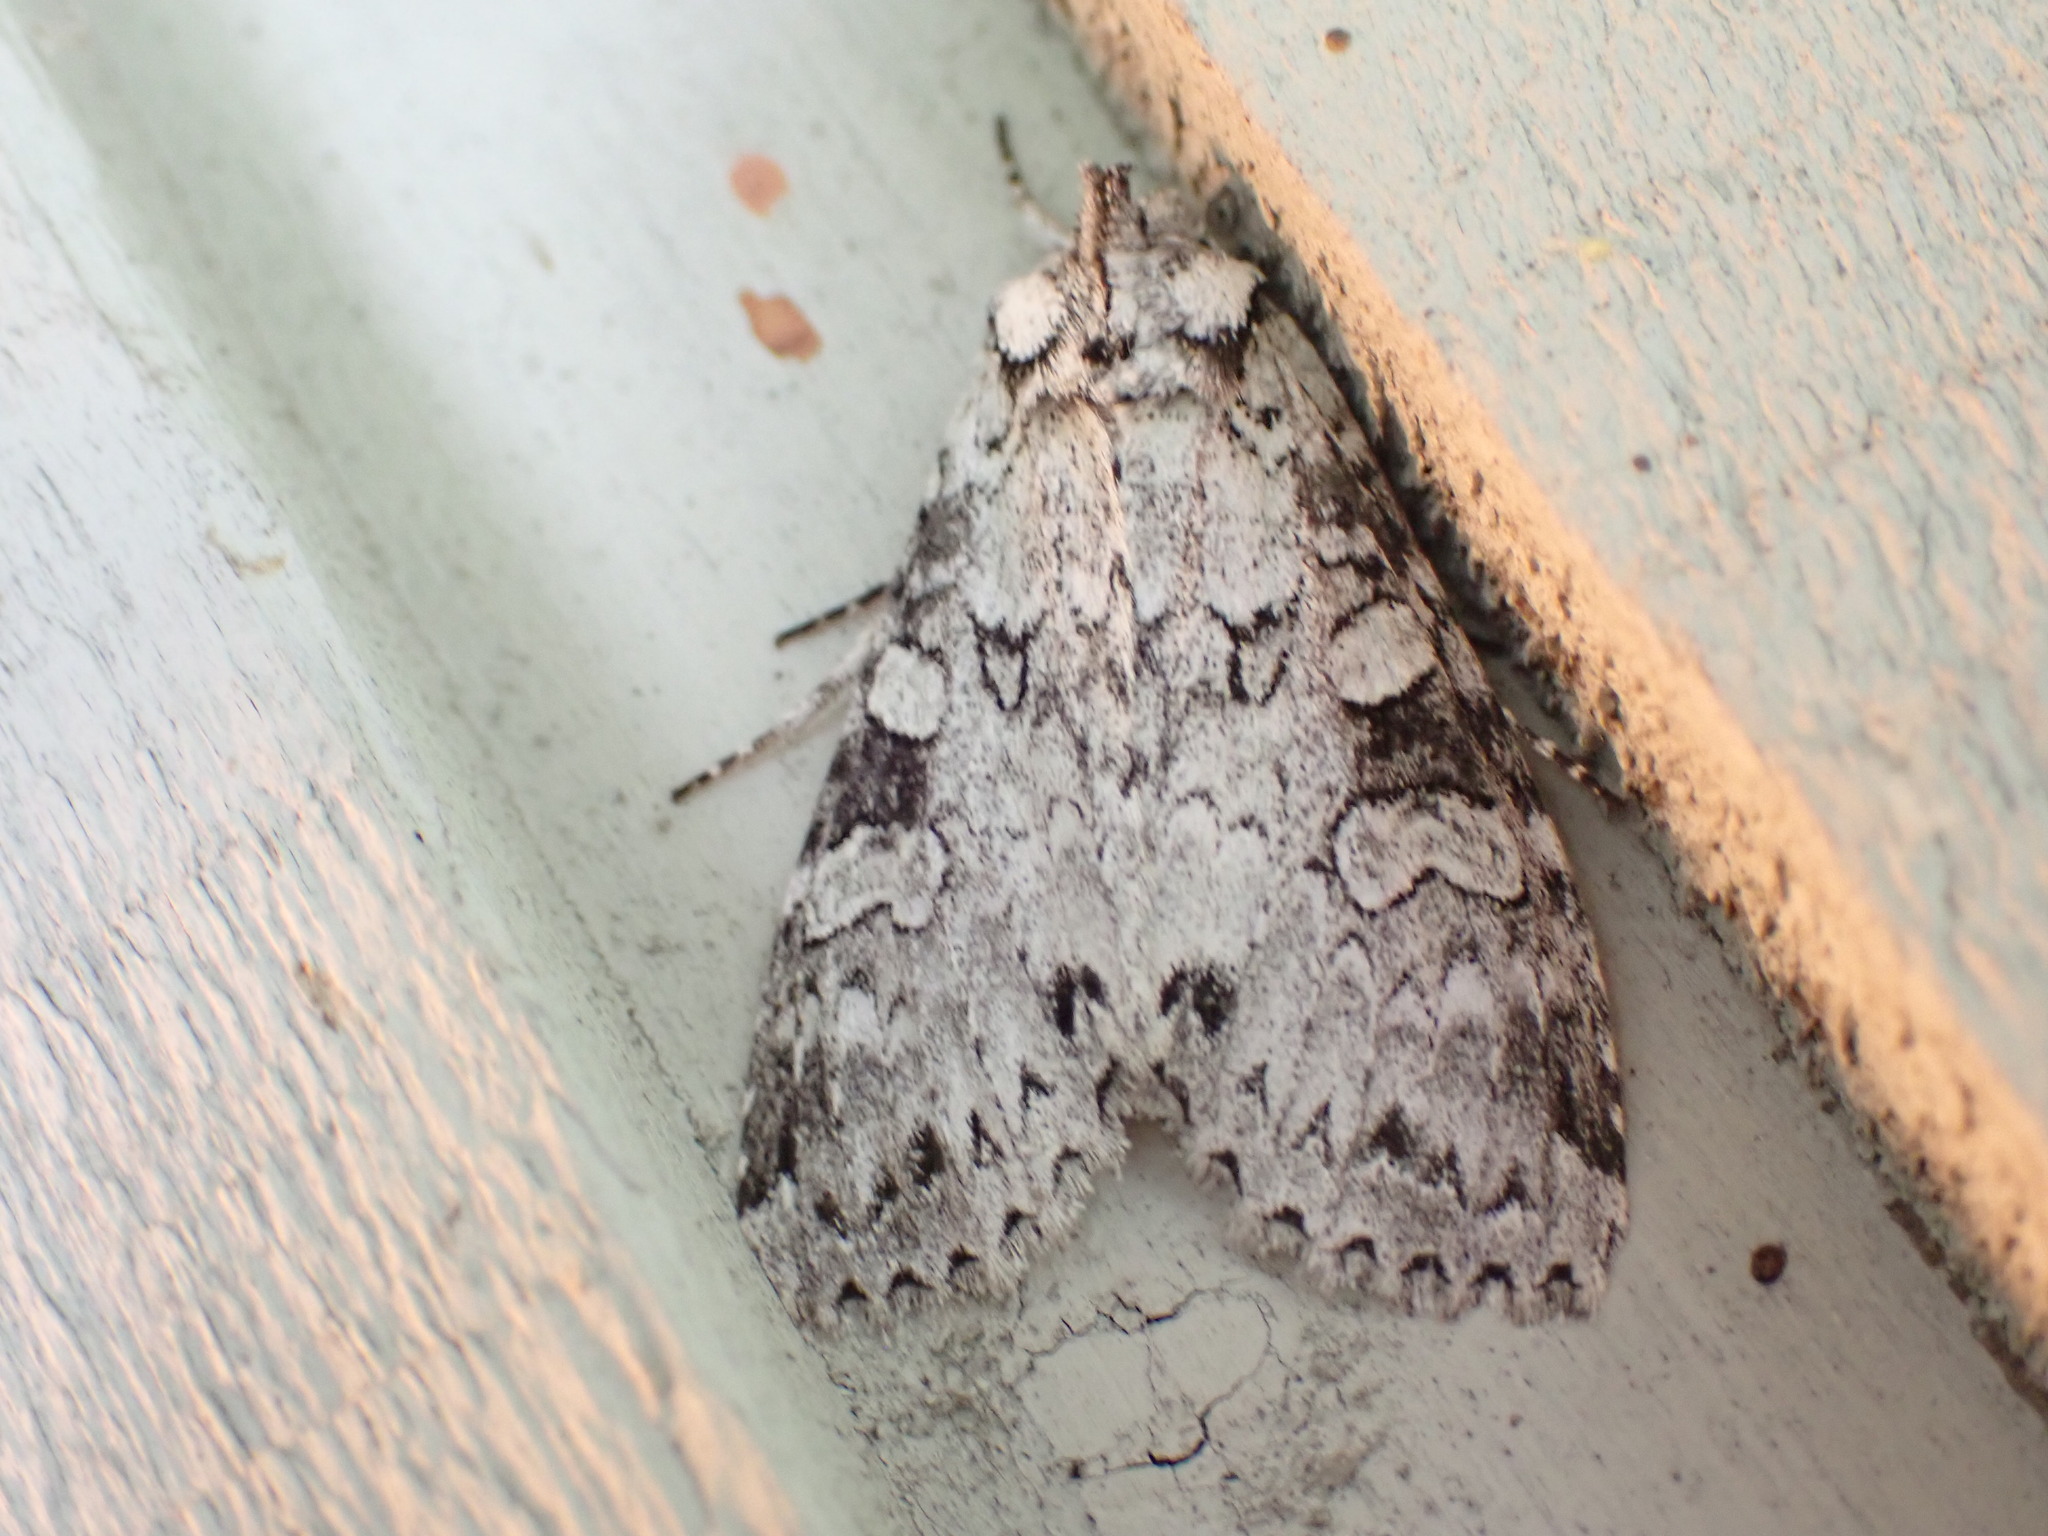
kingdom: Animalia
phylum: Arthropoda
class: Insecta
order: Lepidoptera
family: Noctuidae
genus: Polia
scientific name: Polia nimbosa
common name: Stormy arches
